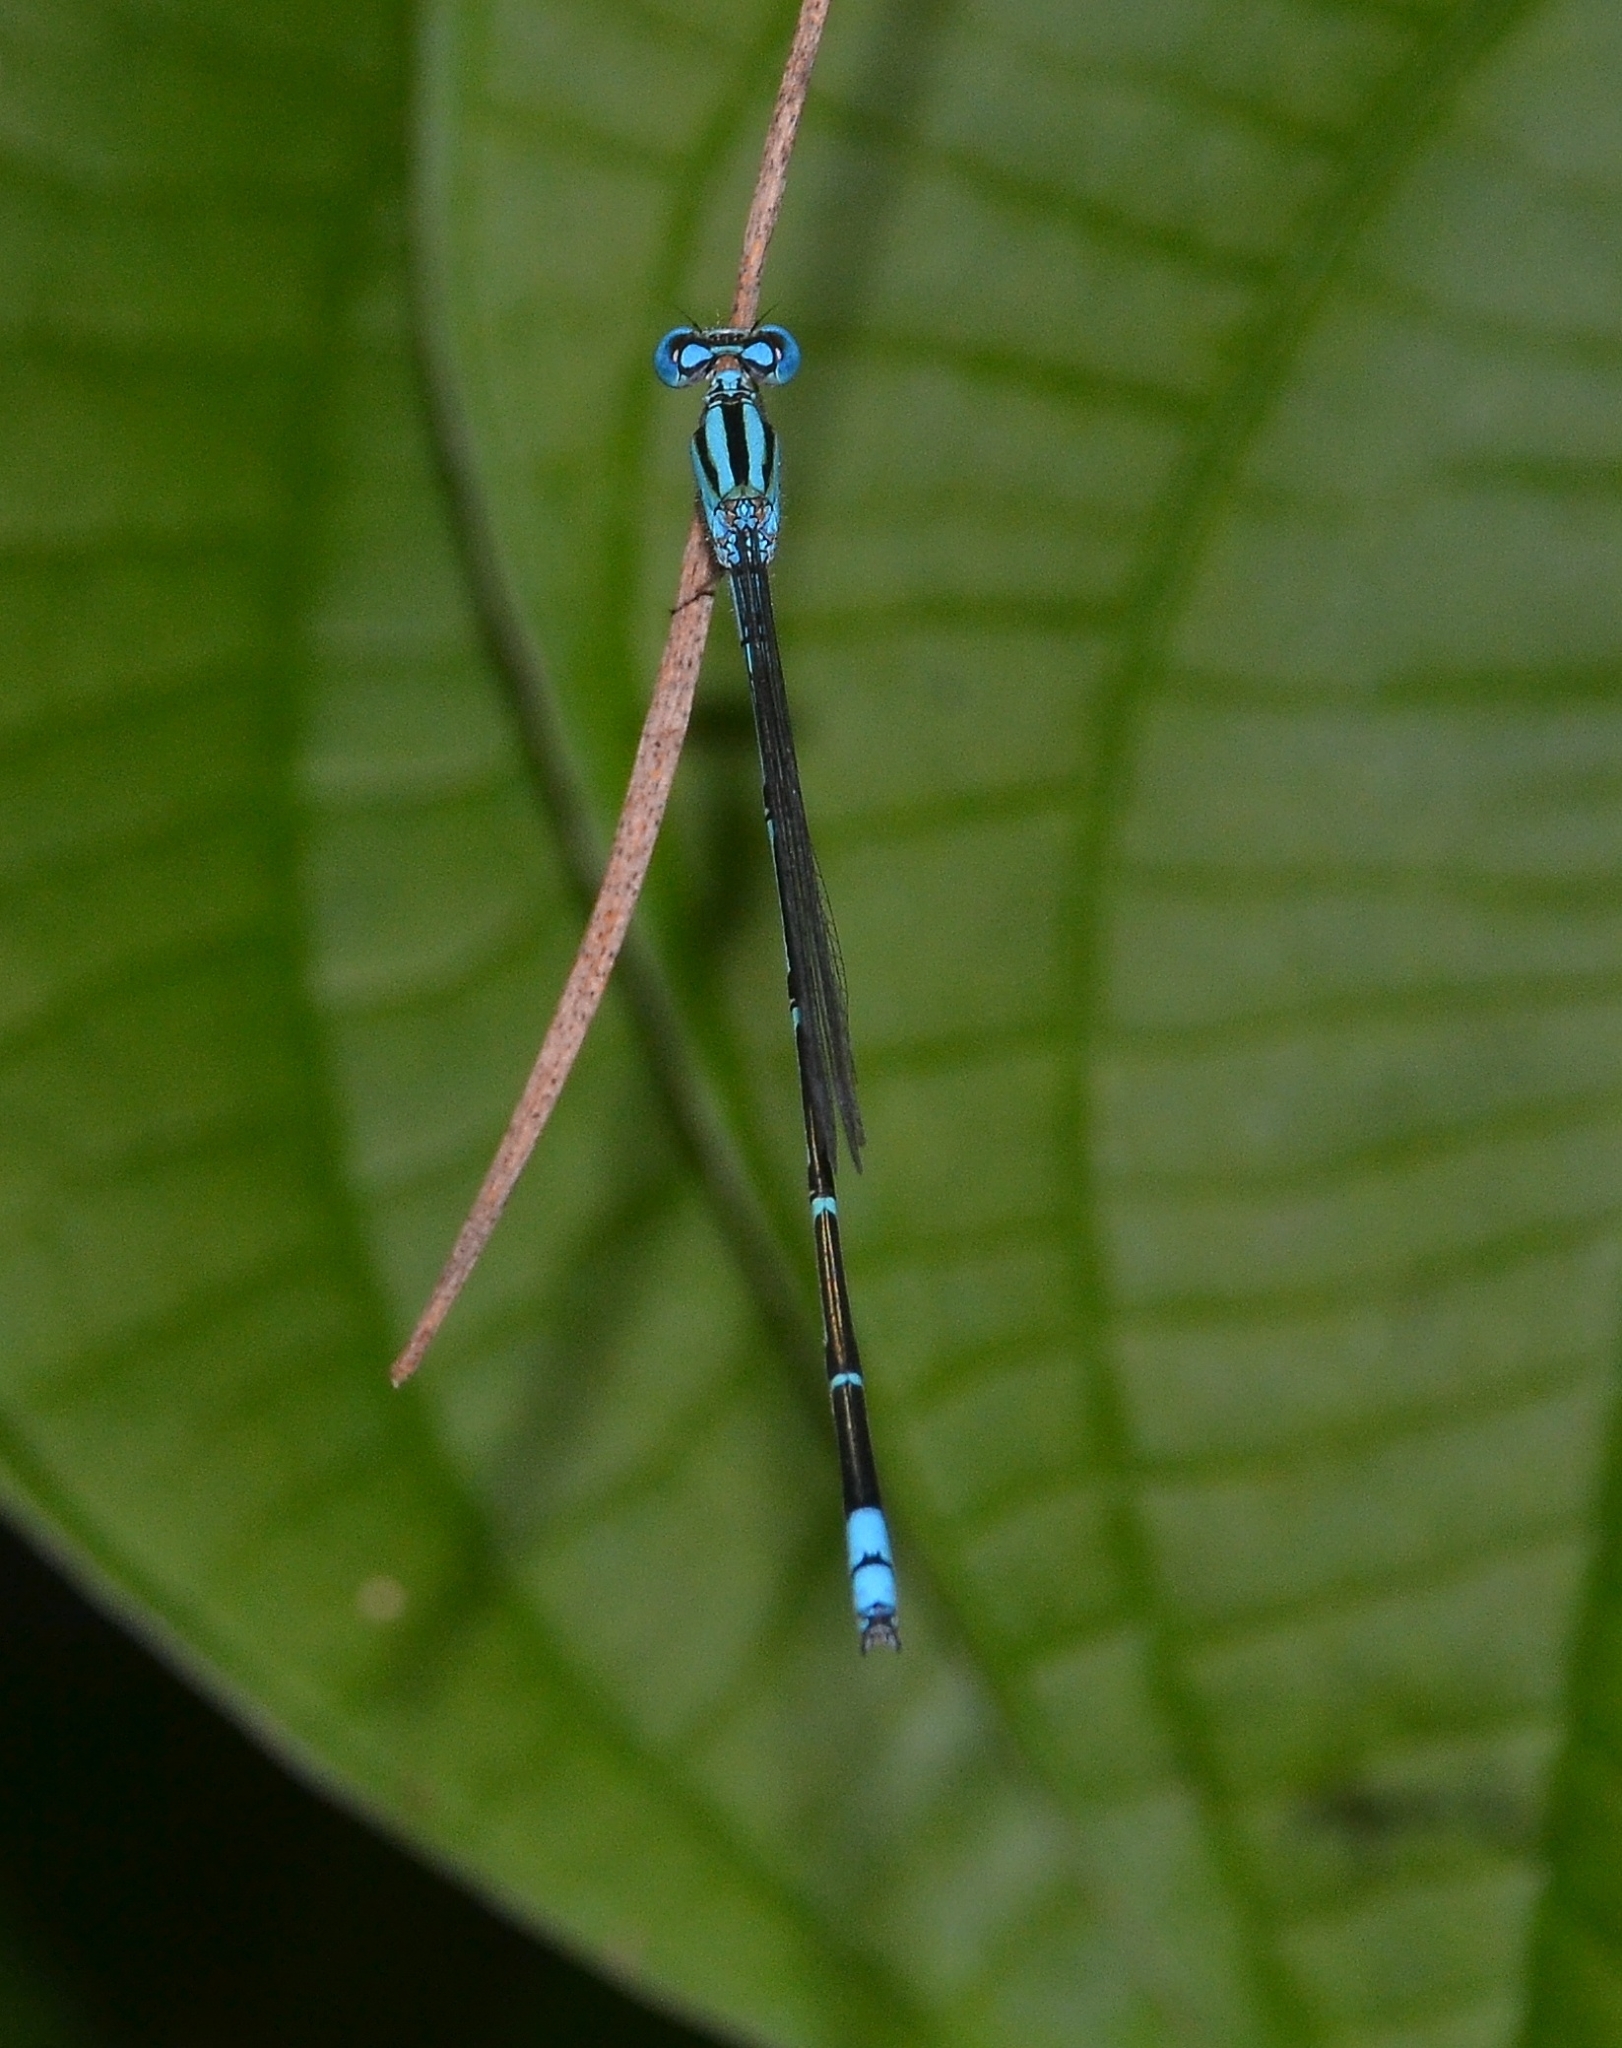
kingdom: Animalia
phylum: Arthropoda
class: Insecta
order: Odonata
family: Coenagrionidae
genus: Pseudagrion
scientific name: Pseudagrion malabaricum
